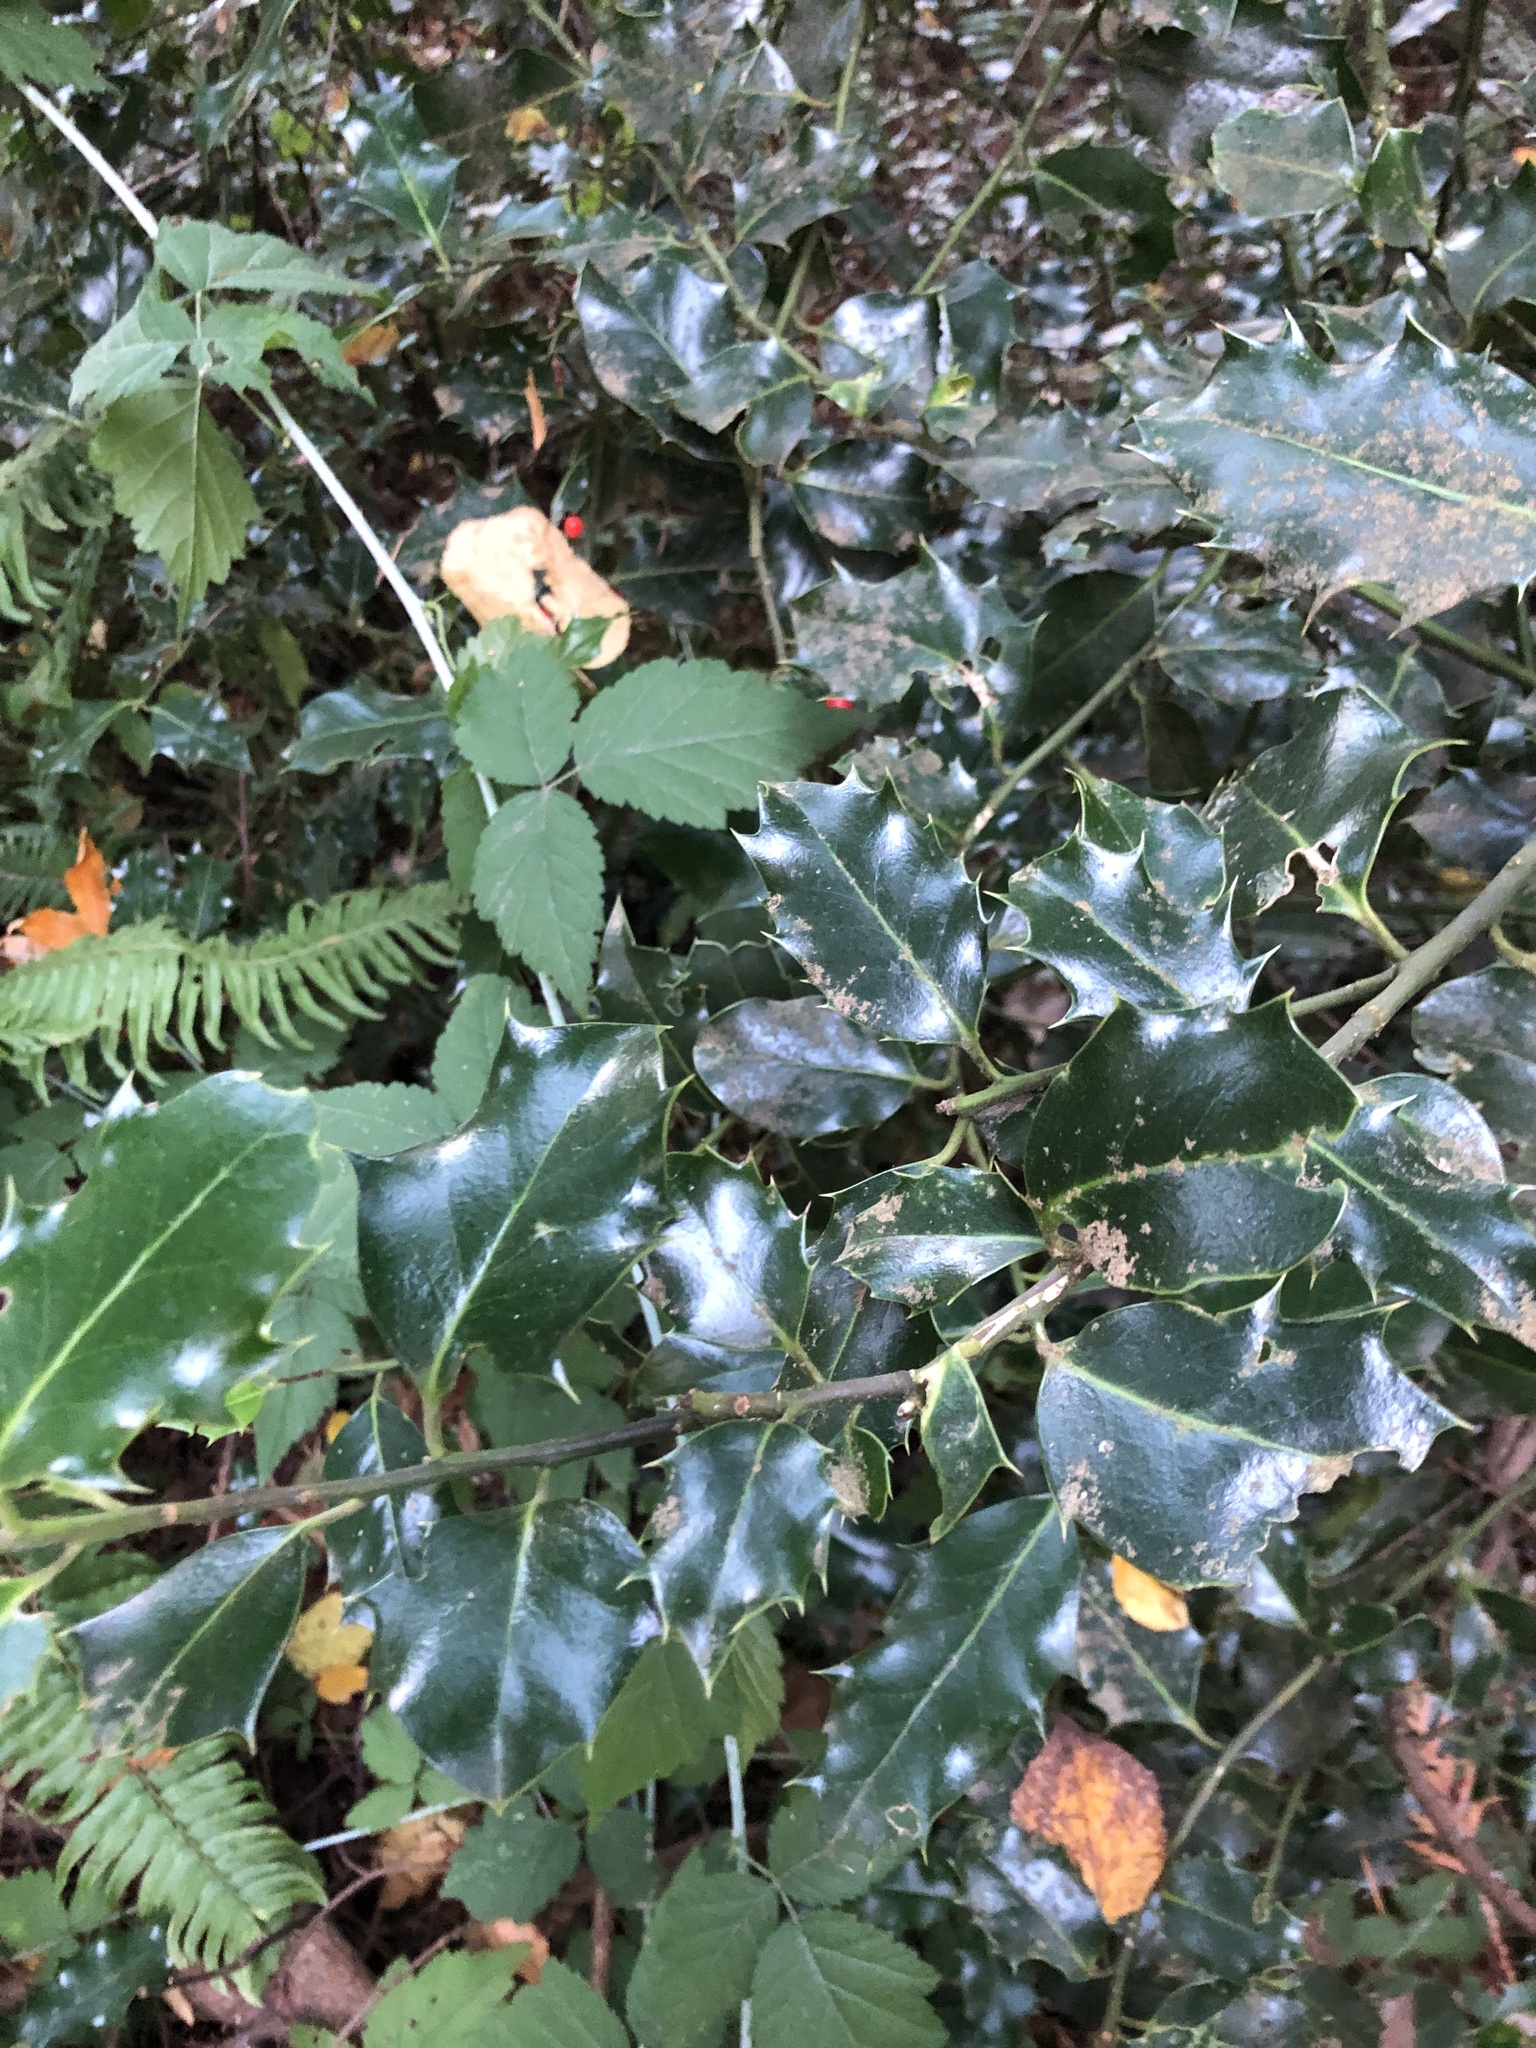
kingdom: Plantae
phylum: Tracheophyta
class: Magnoliopsida
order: Aquifoliales
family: Aquifoliaceae
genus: Ilex
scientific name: Ilex aquifolium
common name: English holly
